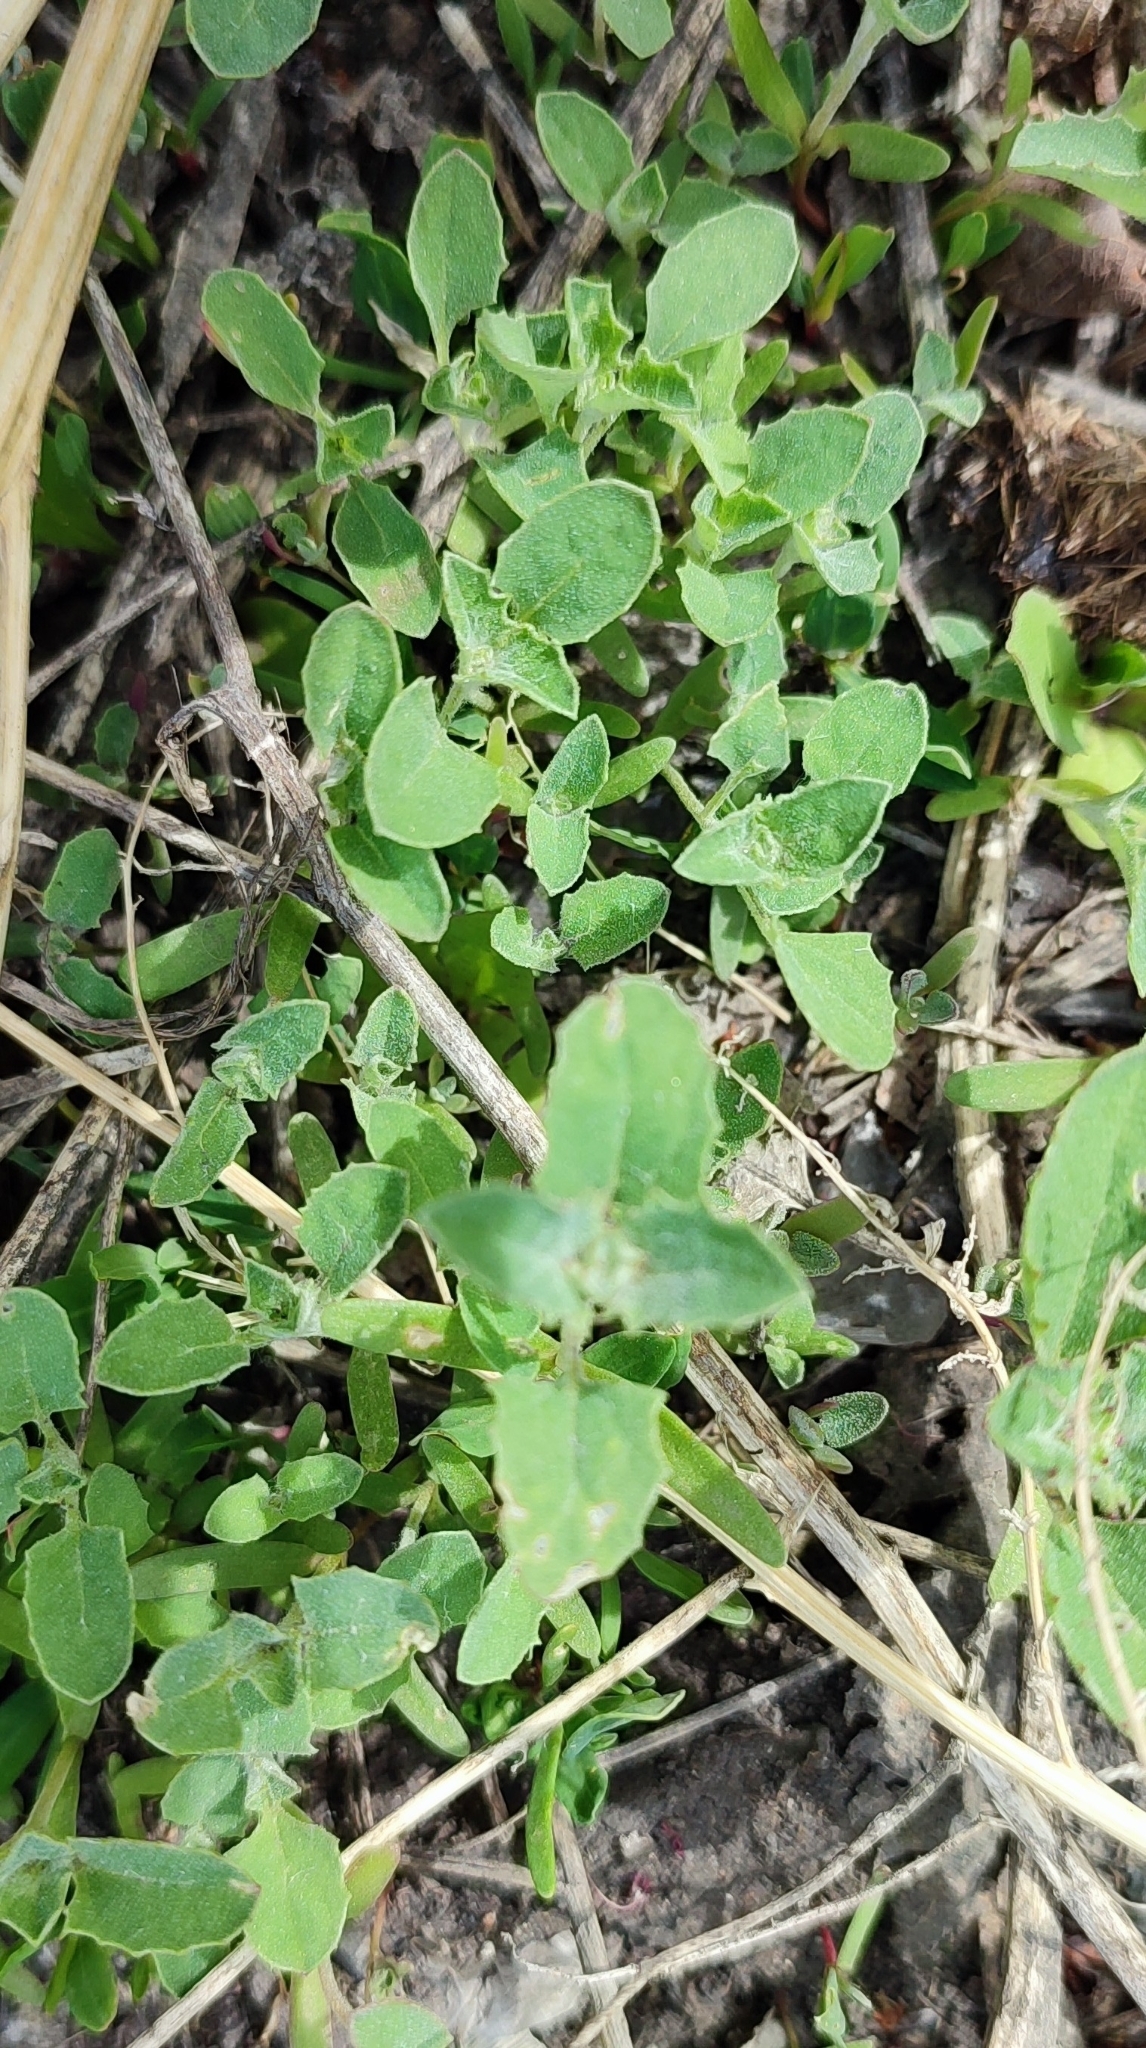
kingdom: Plantae
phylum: Tracheophyta
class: Magnoliopsida
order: Caryophyllales
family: Amaranthaceae
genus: Atriplex
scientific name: Atriplex tatarica
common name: Tatarian orache
